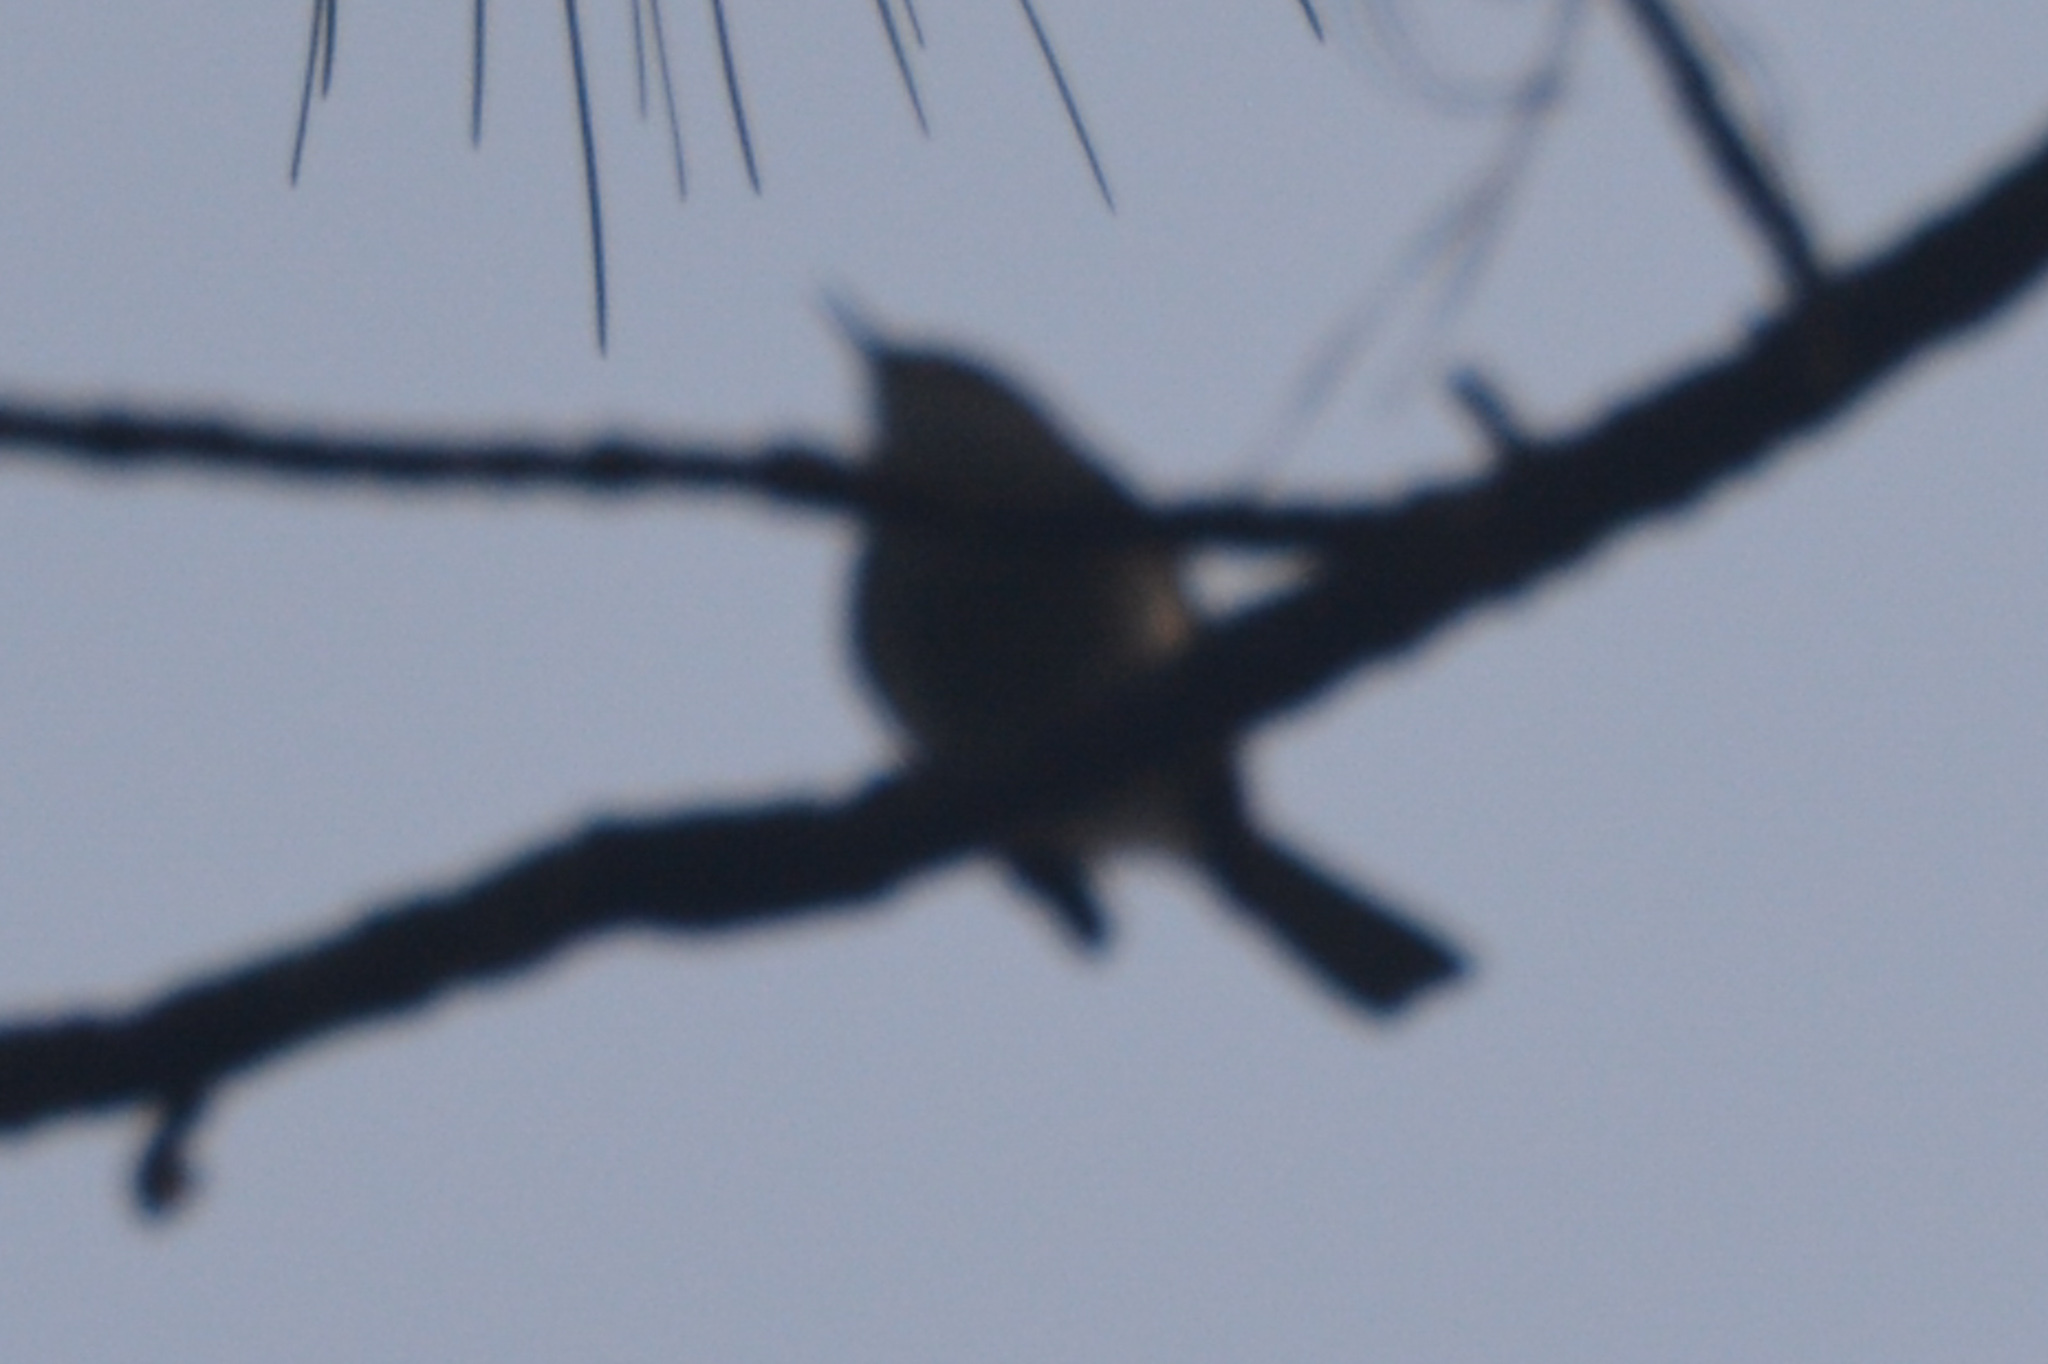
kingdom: Animalia
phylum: Chordata
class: Aves
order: Passeriformes
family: Polioptilidae
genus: Polioptila
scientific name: Polioptila caerulea
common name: Blue-gray gnatcatcher
